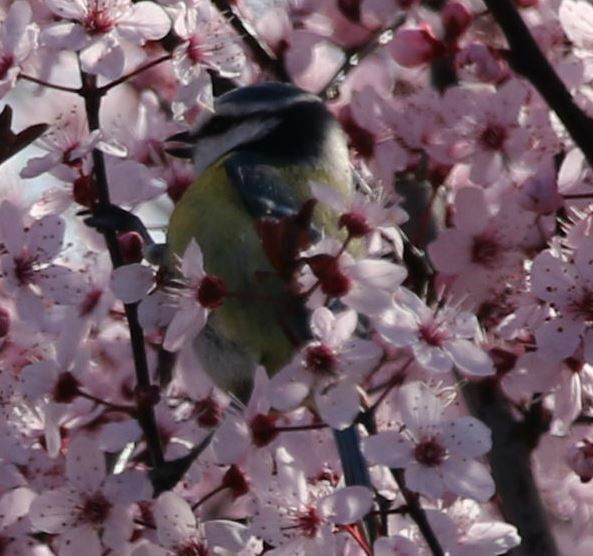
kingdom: Animalia
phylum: Chordata
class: Aves
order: Passeriformes
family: Paridae
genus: Cyanistes
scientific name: Cyanistes caeruleus
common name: Eurasian blue tit
